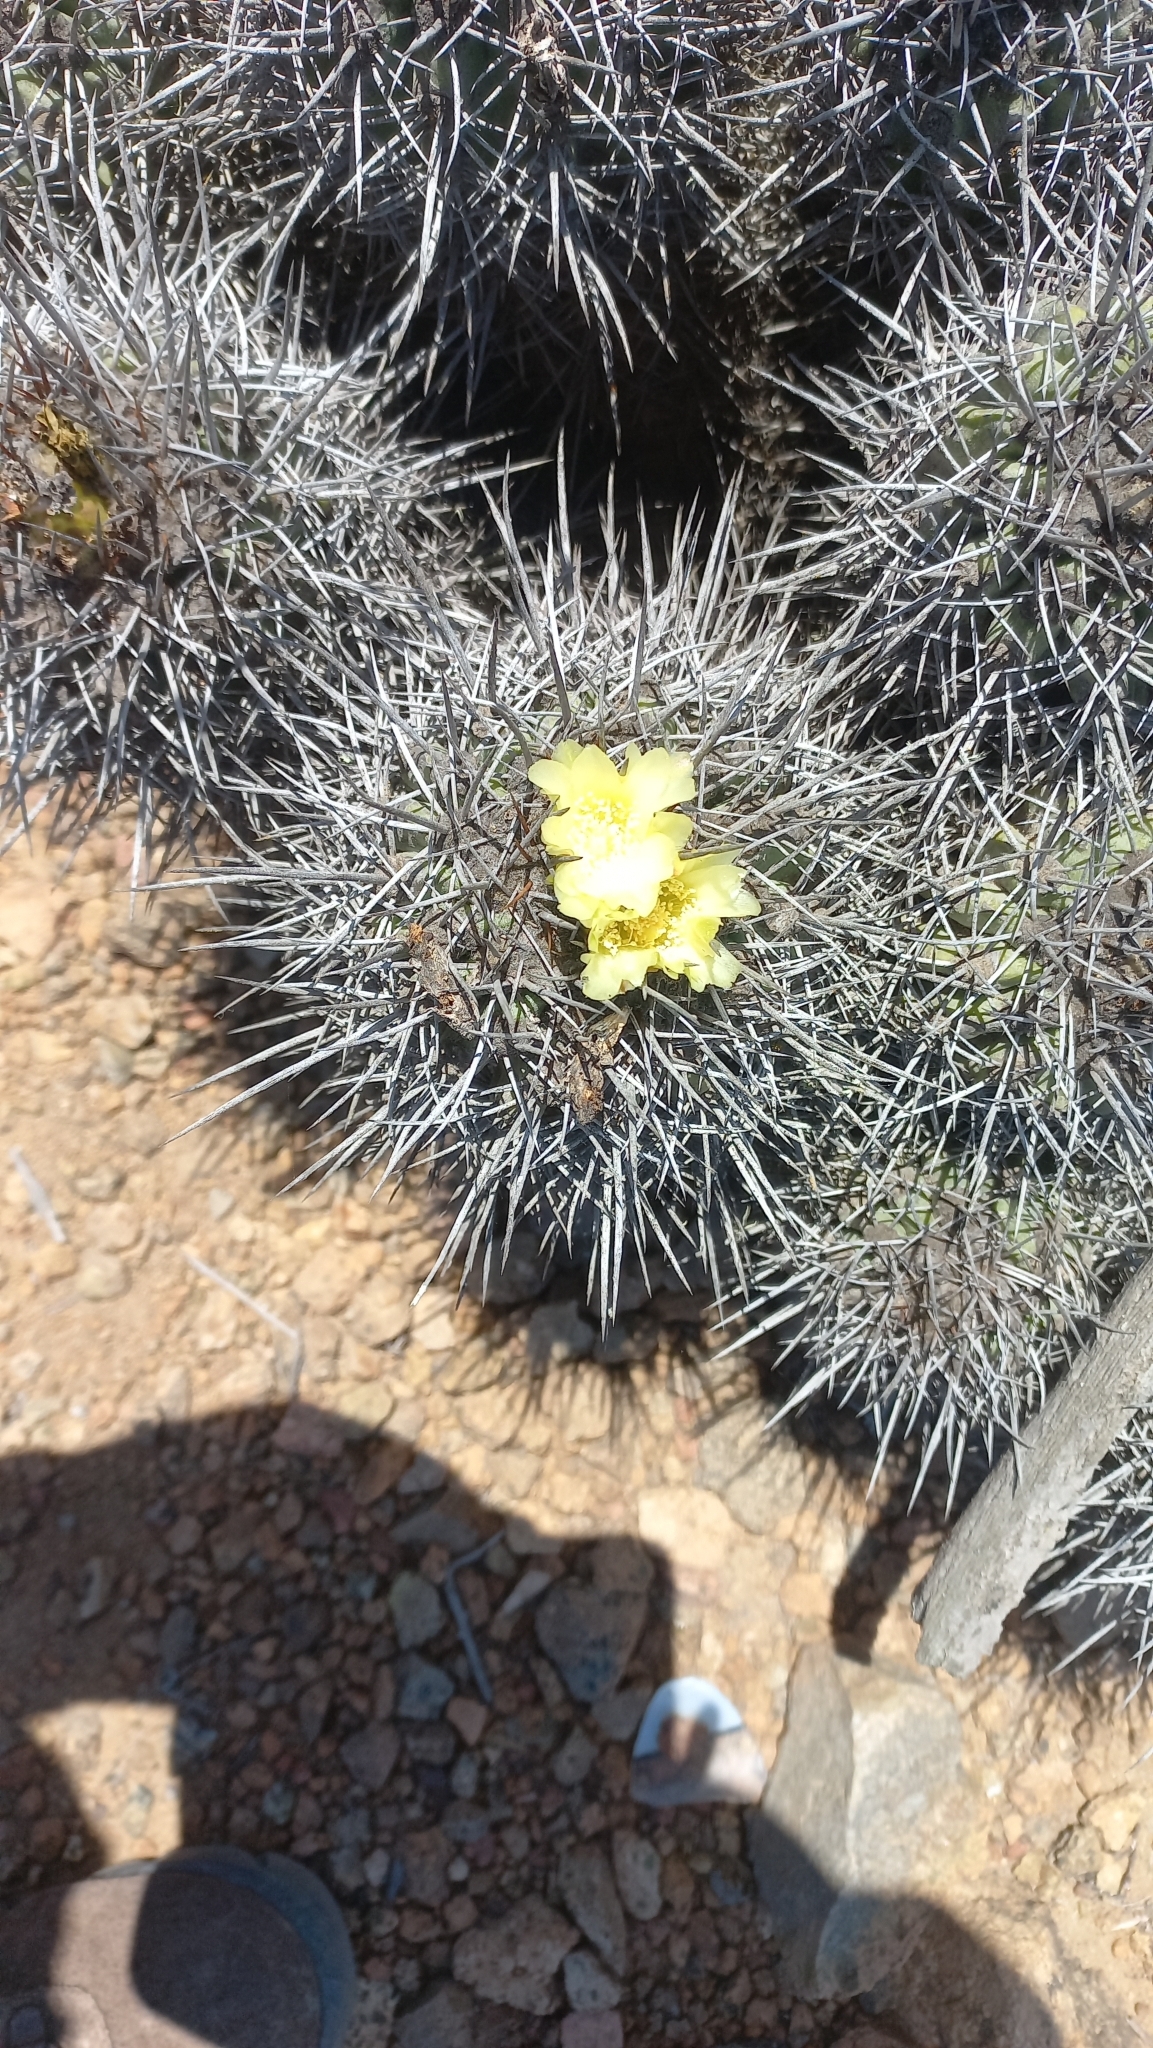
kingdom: Plantae
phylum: Tracheophyta
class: Magnoliopsida
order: Caryophyllales
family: Cactaceae
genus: Copiapoa
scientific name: Copiapoa coquimbana
